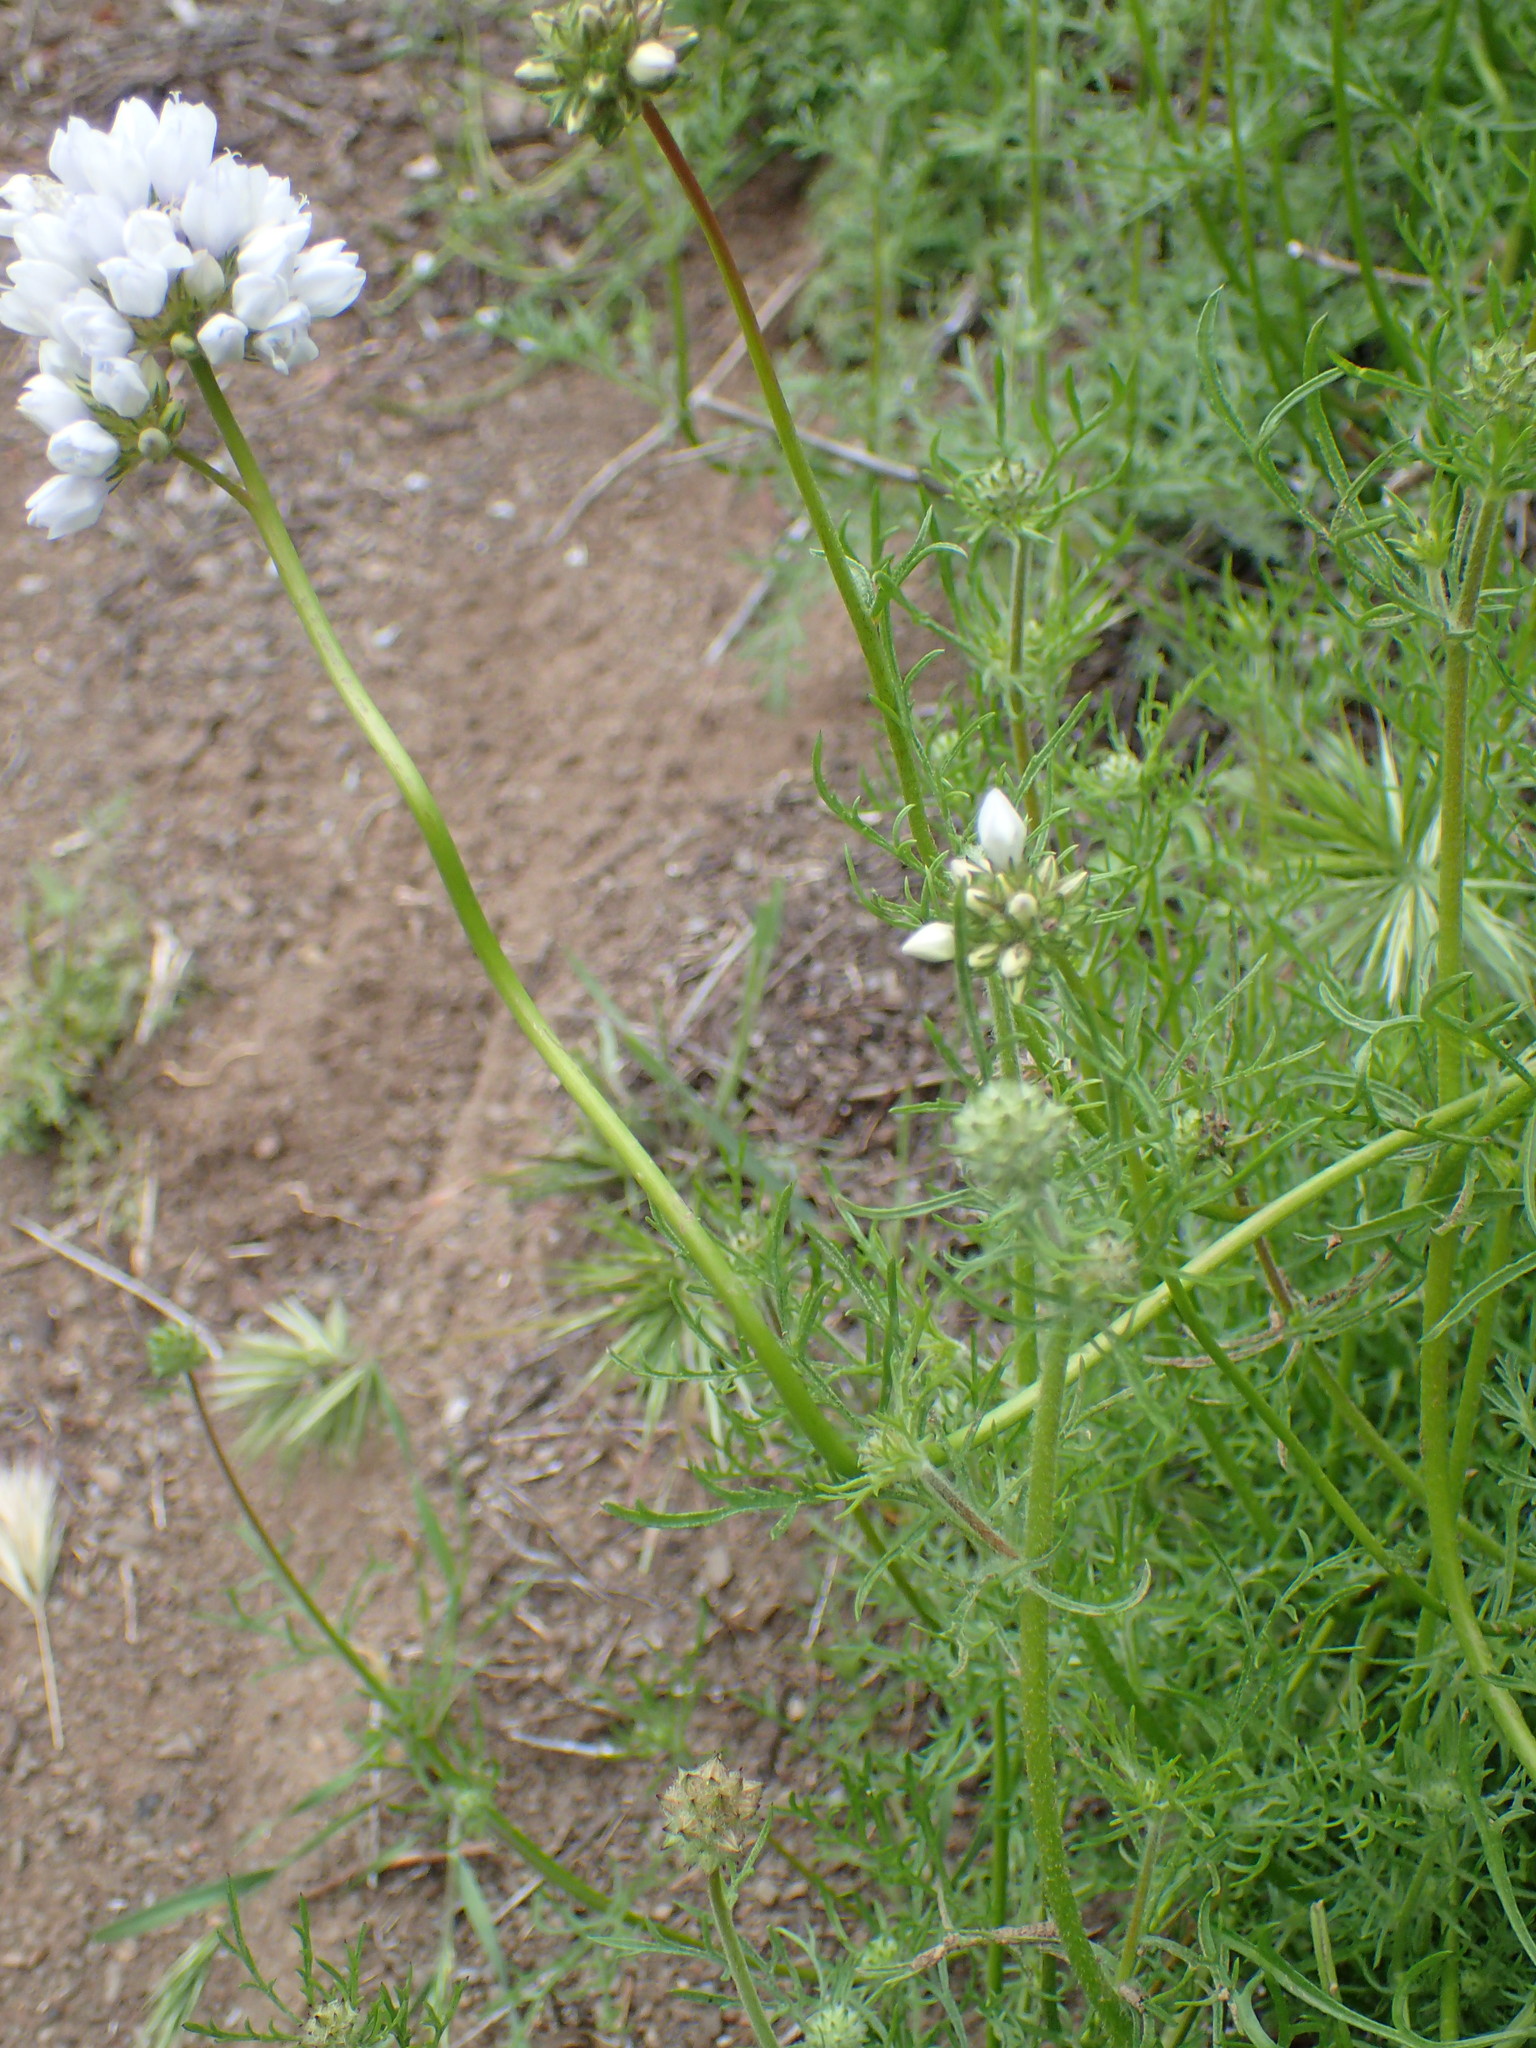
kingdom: Plantae
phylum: Tracheophyta
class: Magnoliopsida
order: Ericales
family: Polemoniaceae
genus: Gilia
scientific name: Gilia capitata
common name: Bluehead gilia
